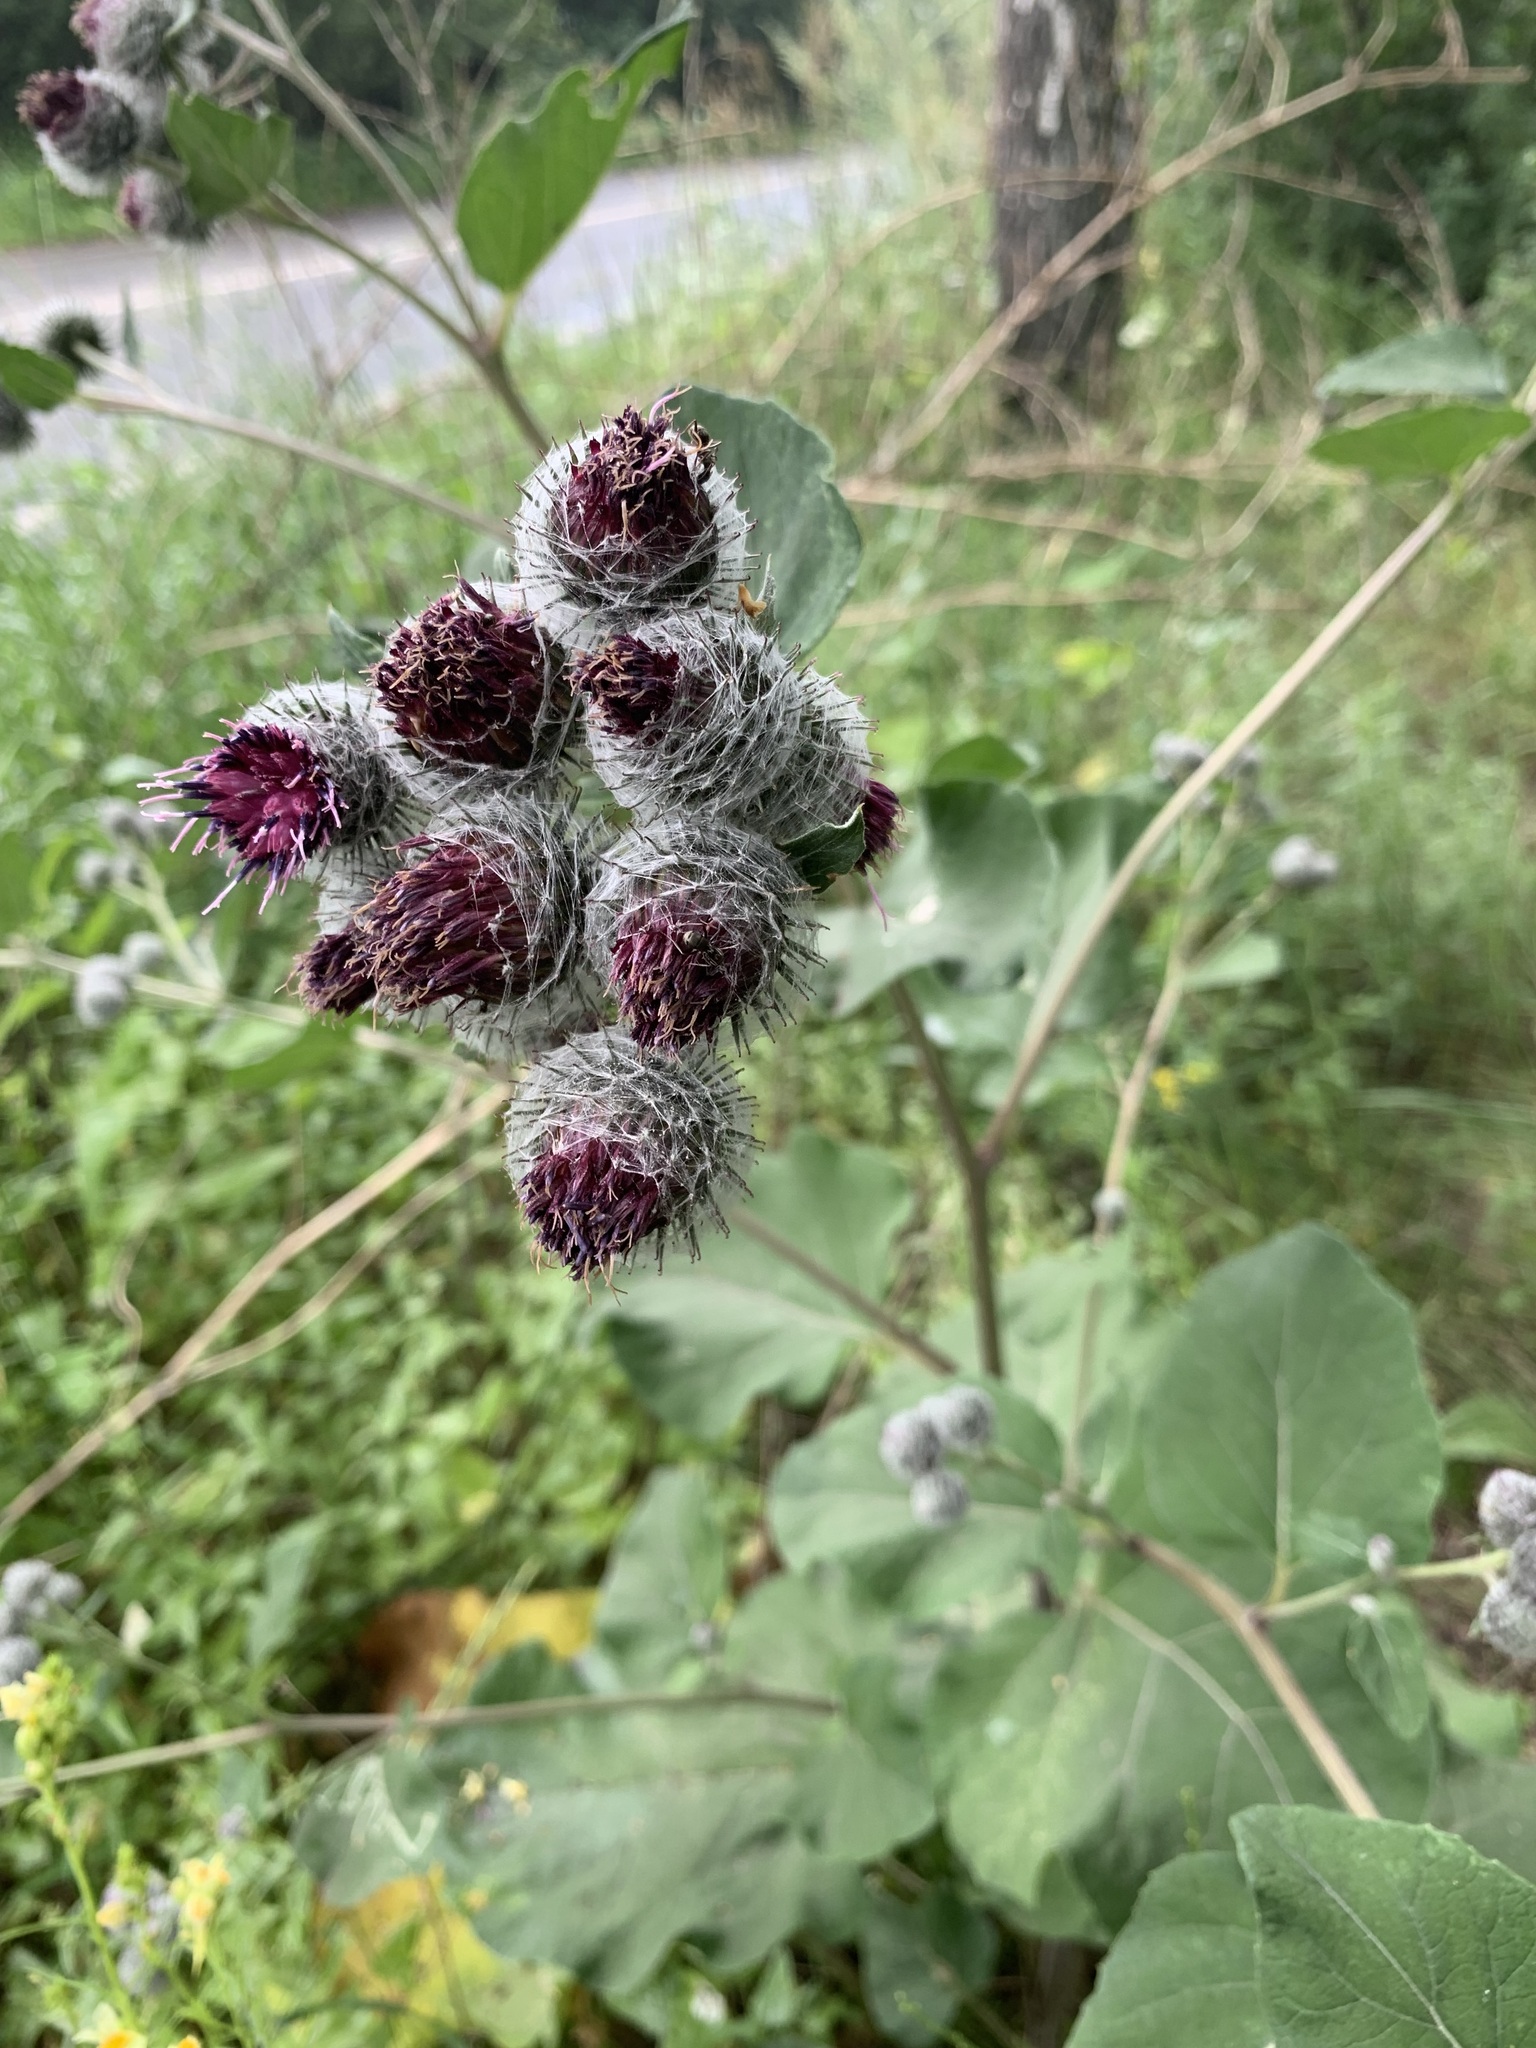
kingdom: Plantae
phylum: Tracheophyta
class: Magnoliopsida
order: Asterales
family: Asteraceae
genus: Arctium
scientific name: Arctium tomentosum
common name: Woolly burdock
